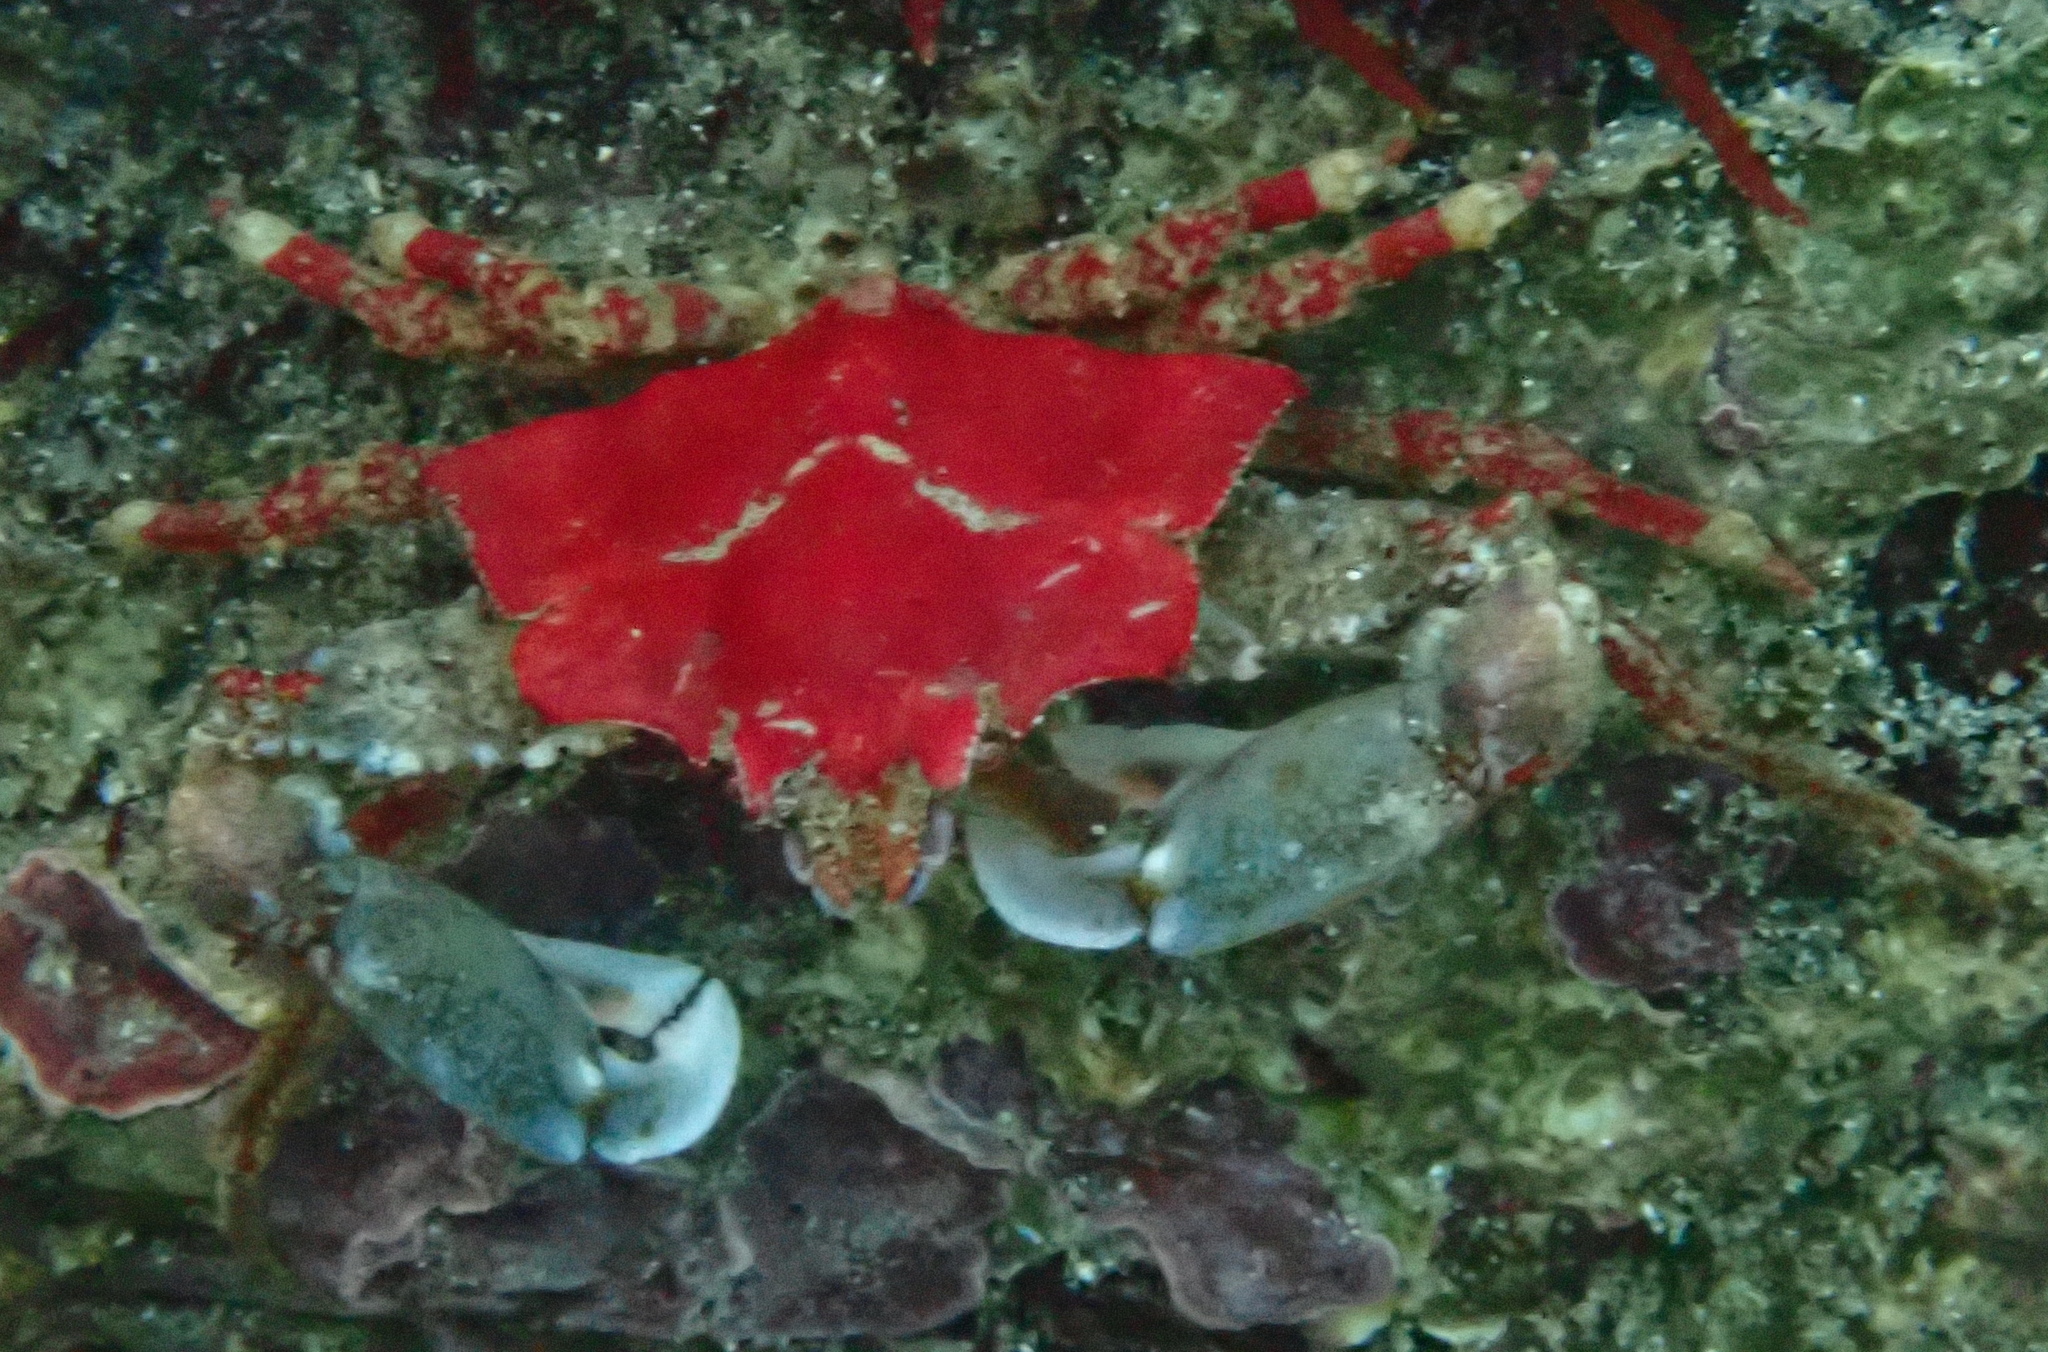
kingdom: Animalia
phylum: Arthropoda
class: Malacostraca
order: Decapoda
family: Epialtidae
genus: Pugettia
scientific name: Pugettia foliata
